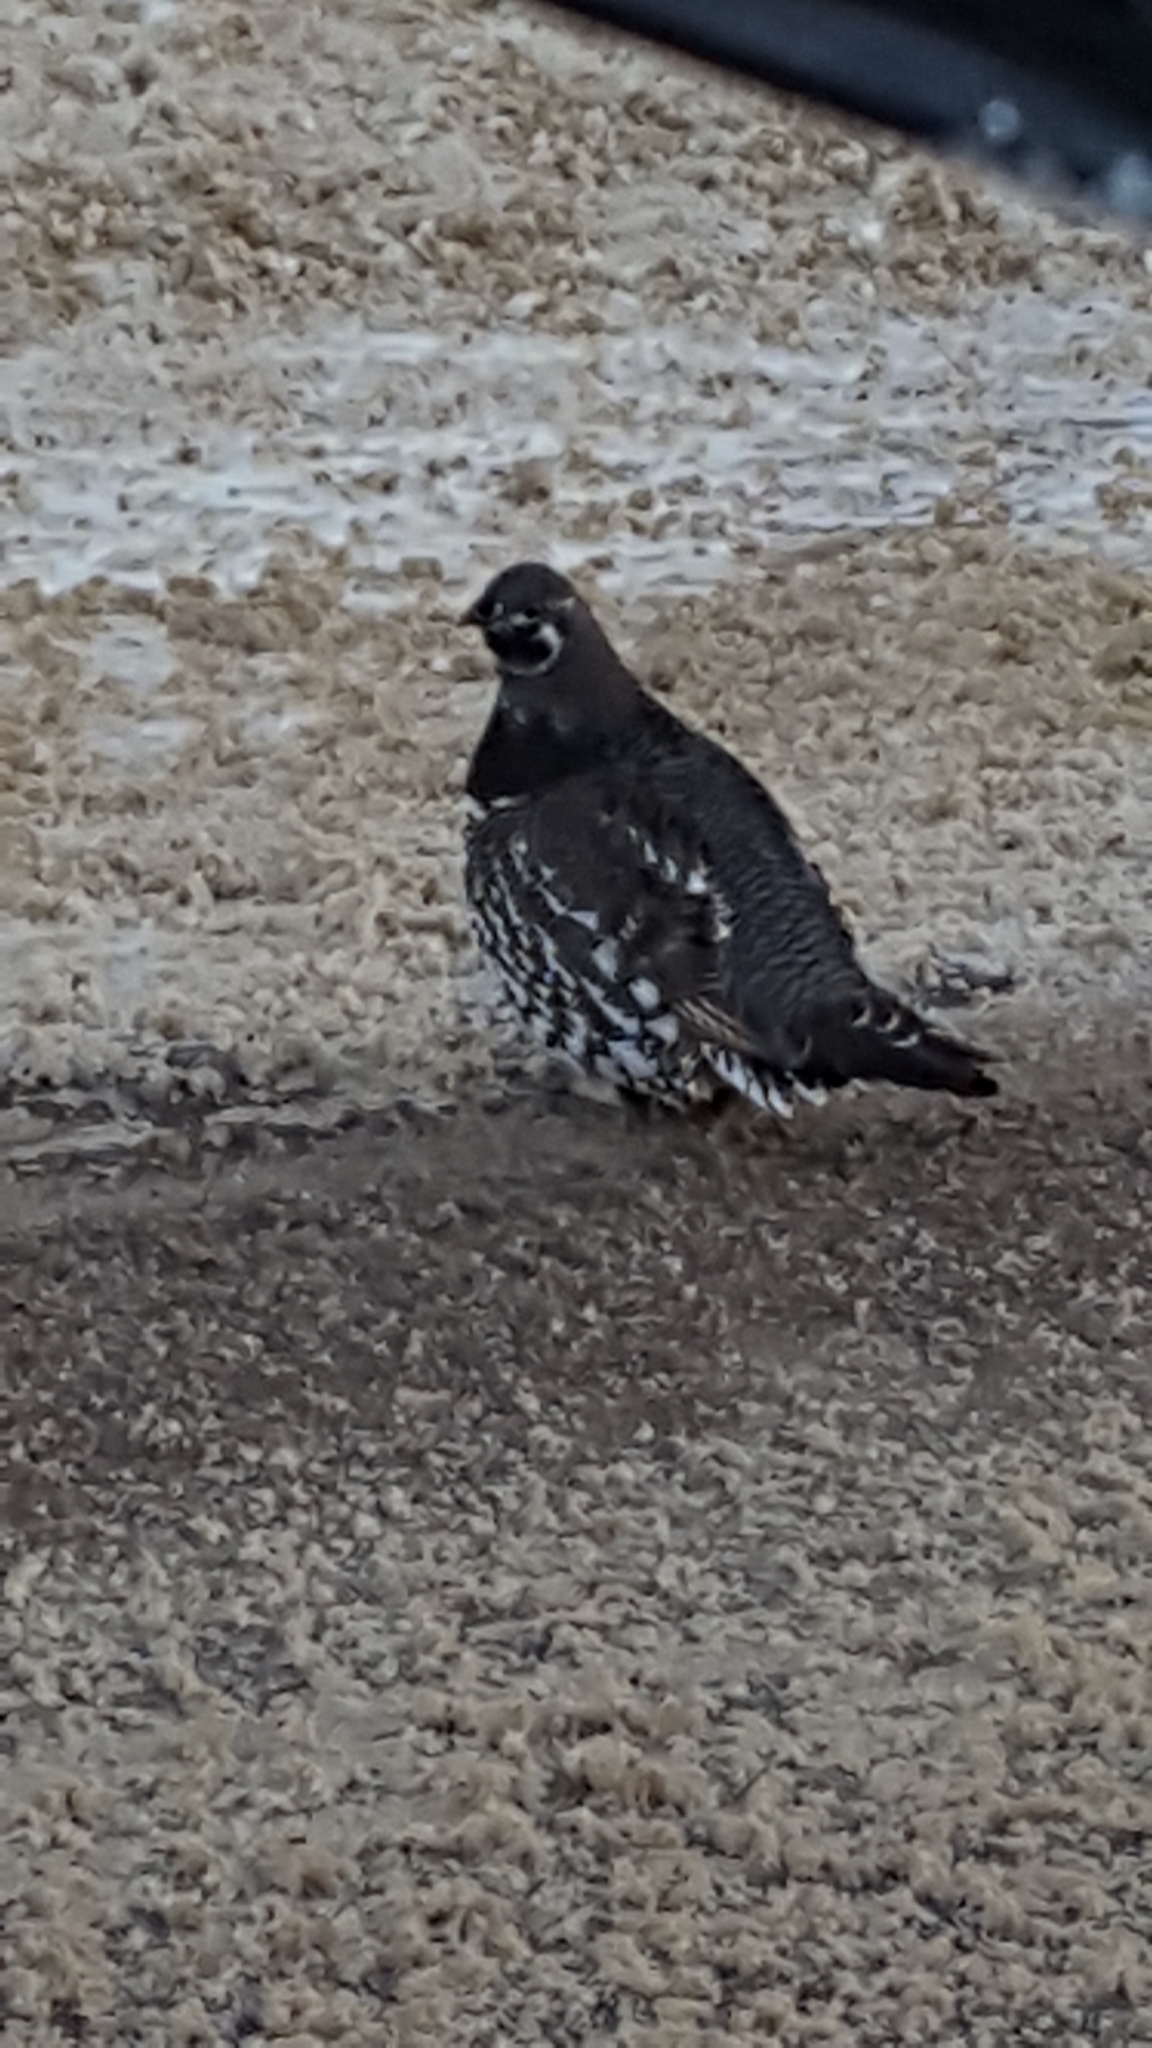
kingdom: Animalia
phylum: Chordata
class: Aves
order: Galliformes
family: Phasianidae
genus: Canachites
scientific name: Canachites canadensis
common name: Spruce grouse
